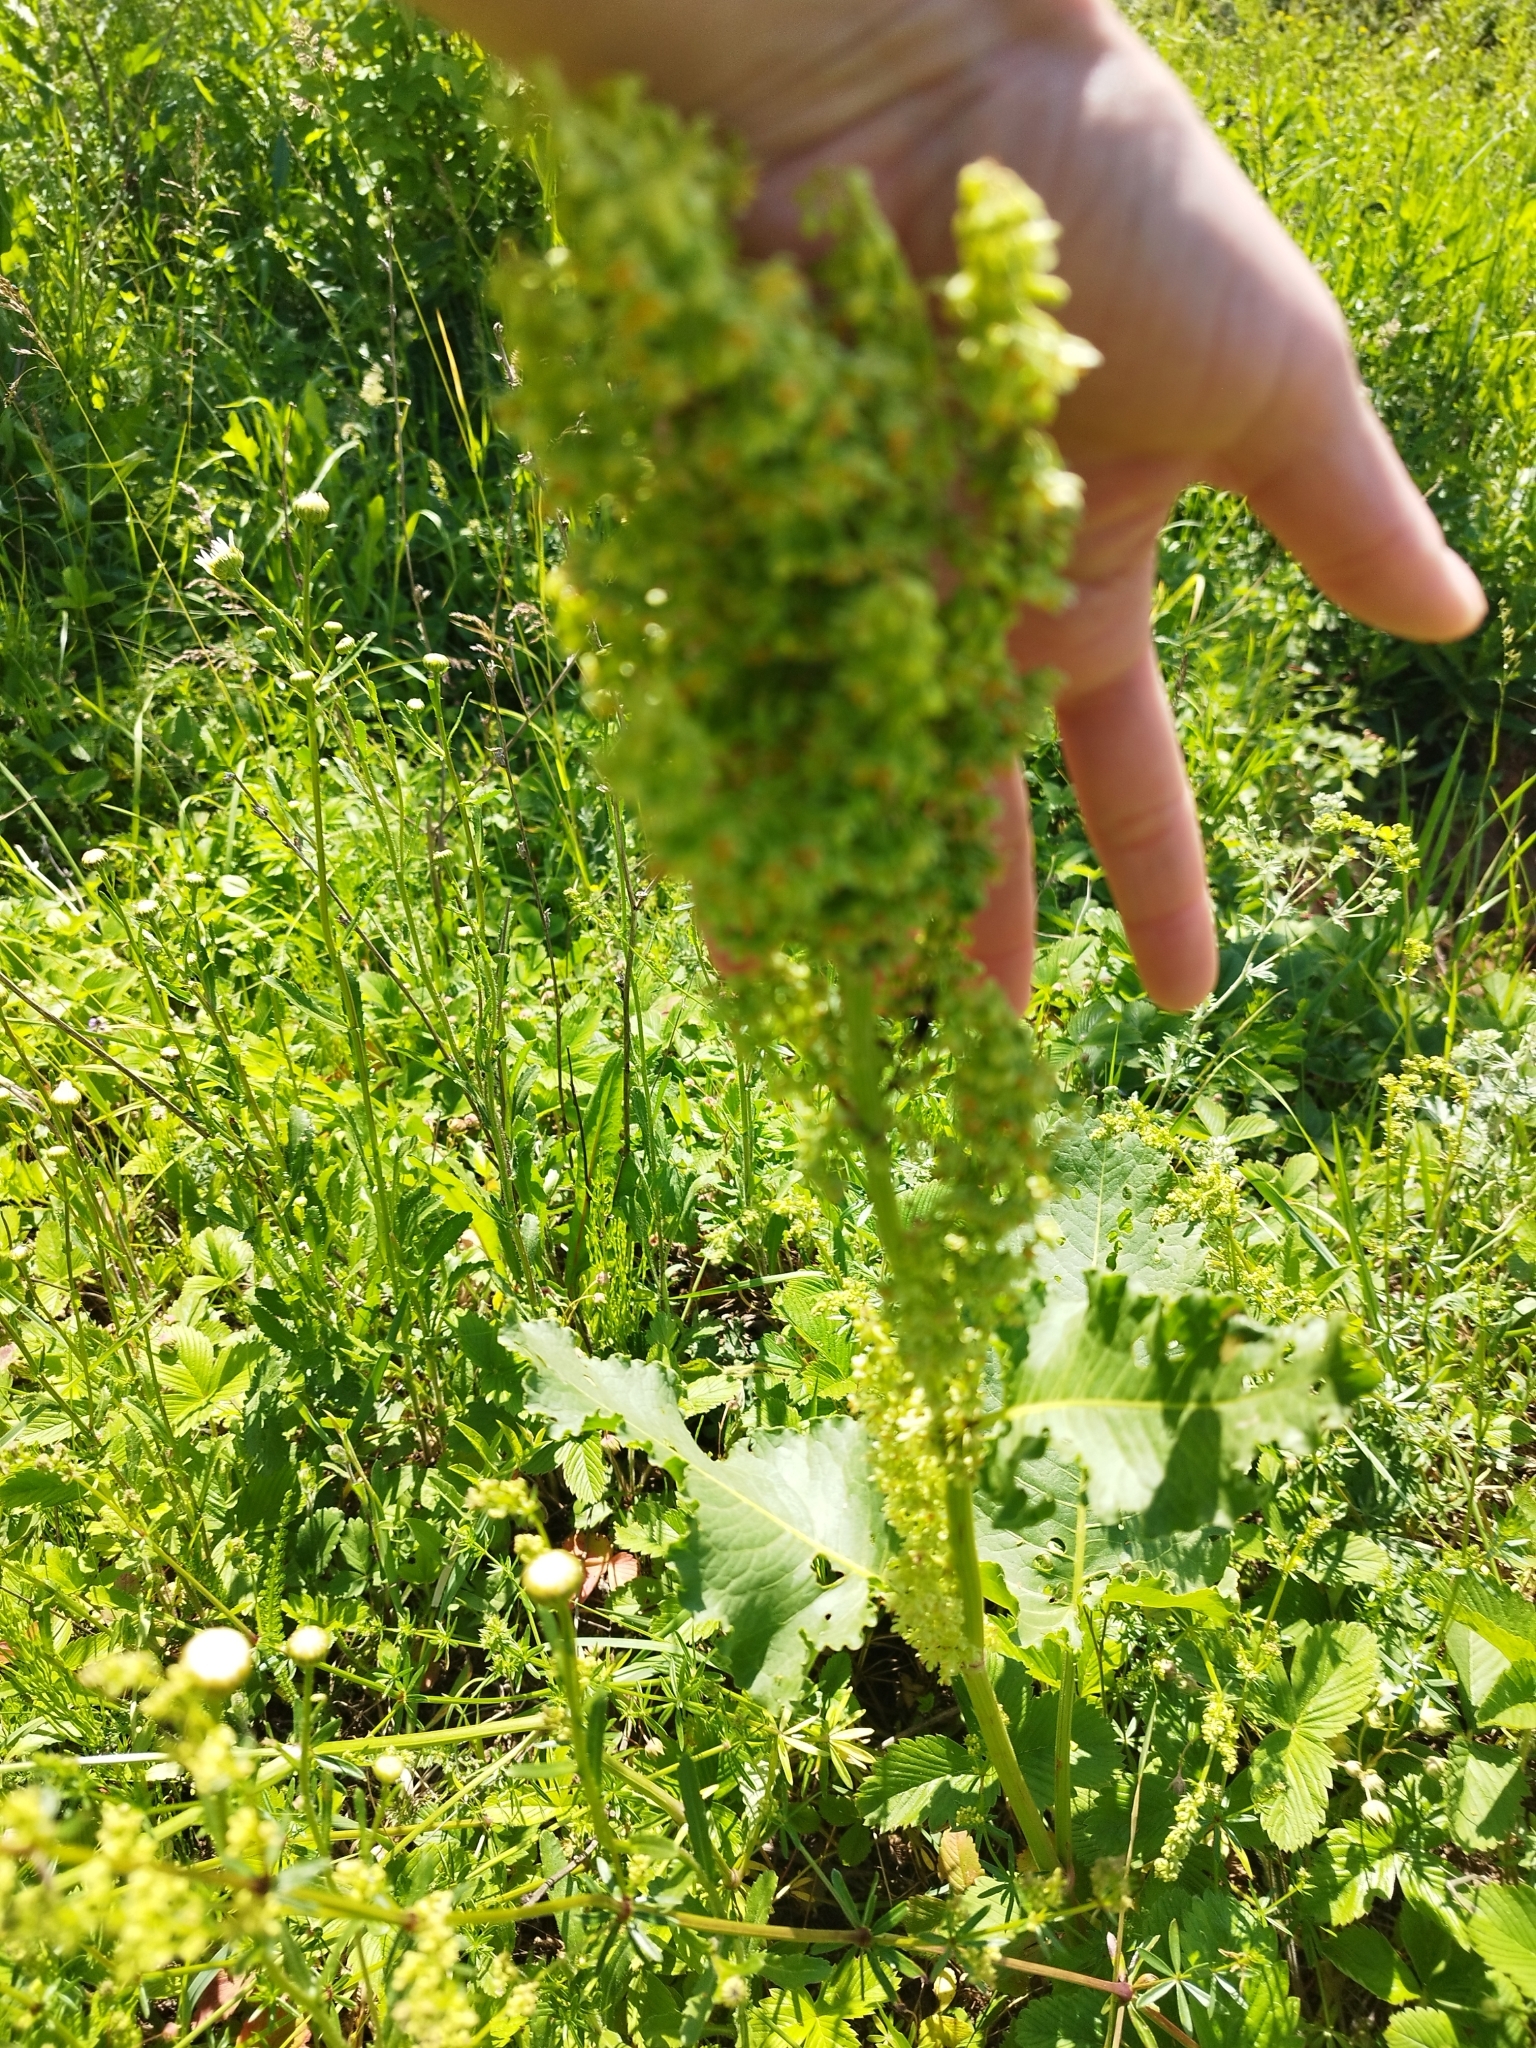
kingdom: Plantae
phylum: Tracheophyta
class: Magnoliopsida
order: Caryophyllales
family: Polygonaceae
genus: Rumex
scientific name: Rumex confertus
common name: Russian dock
